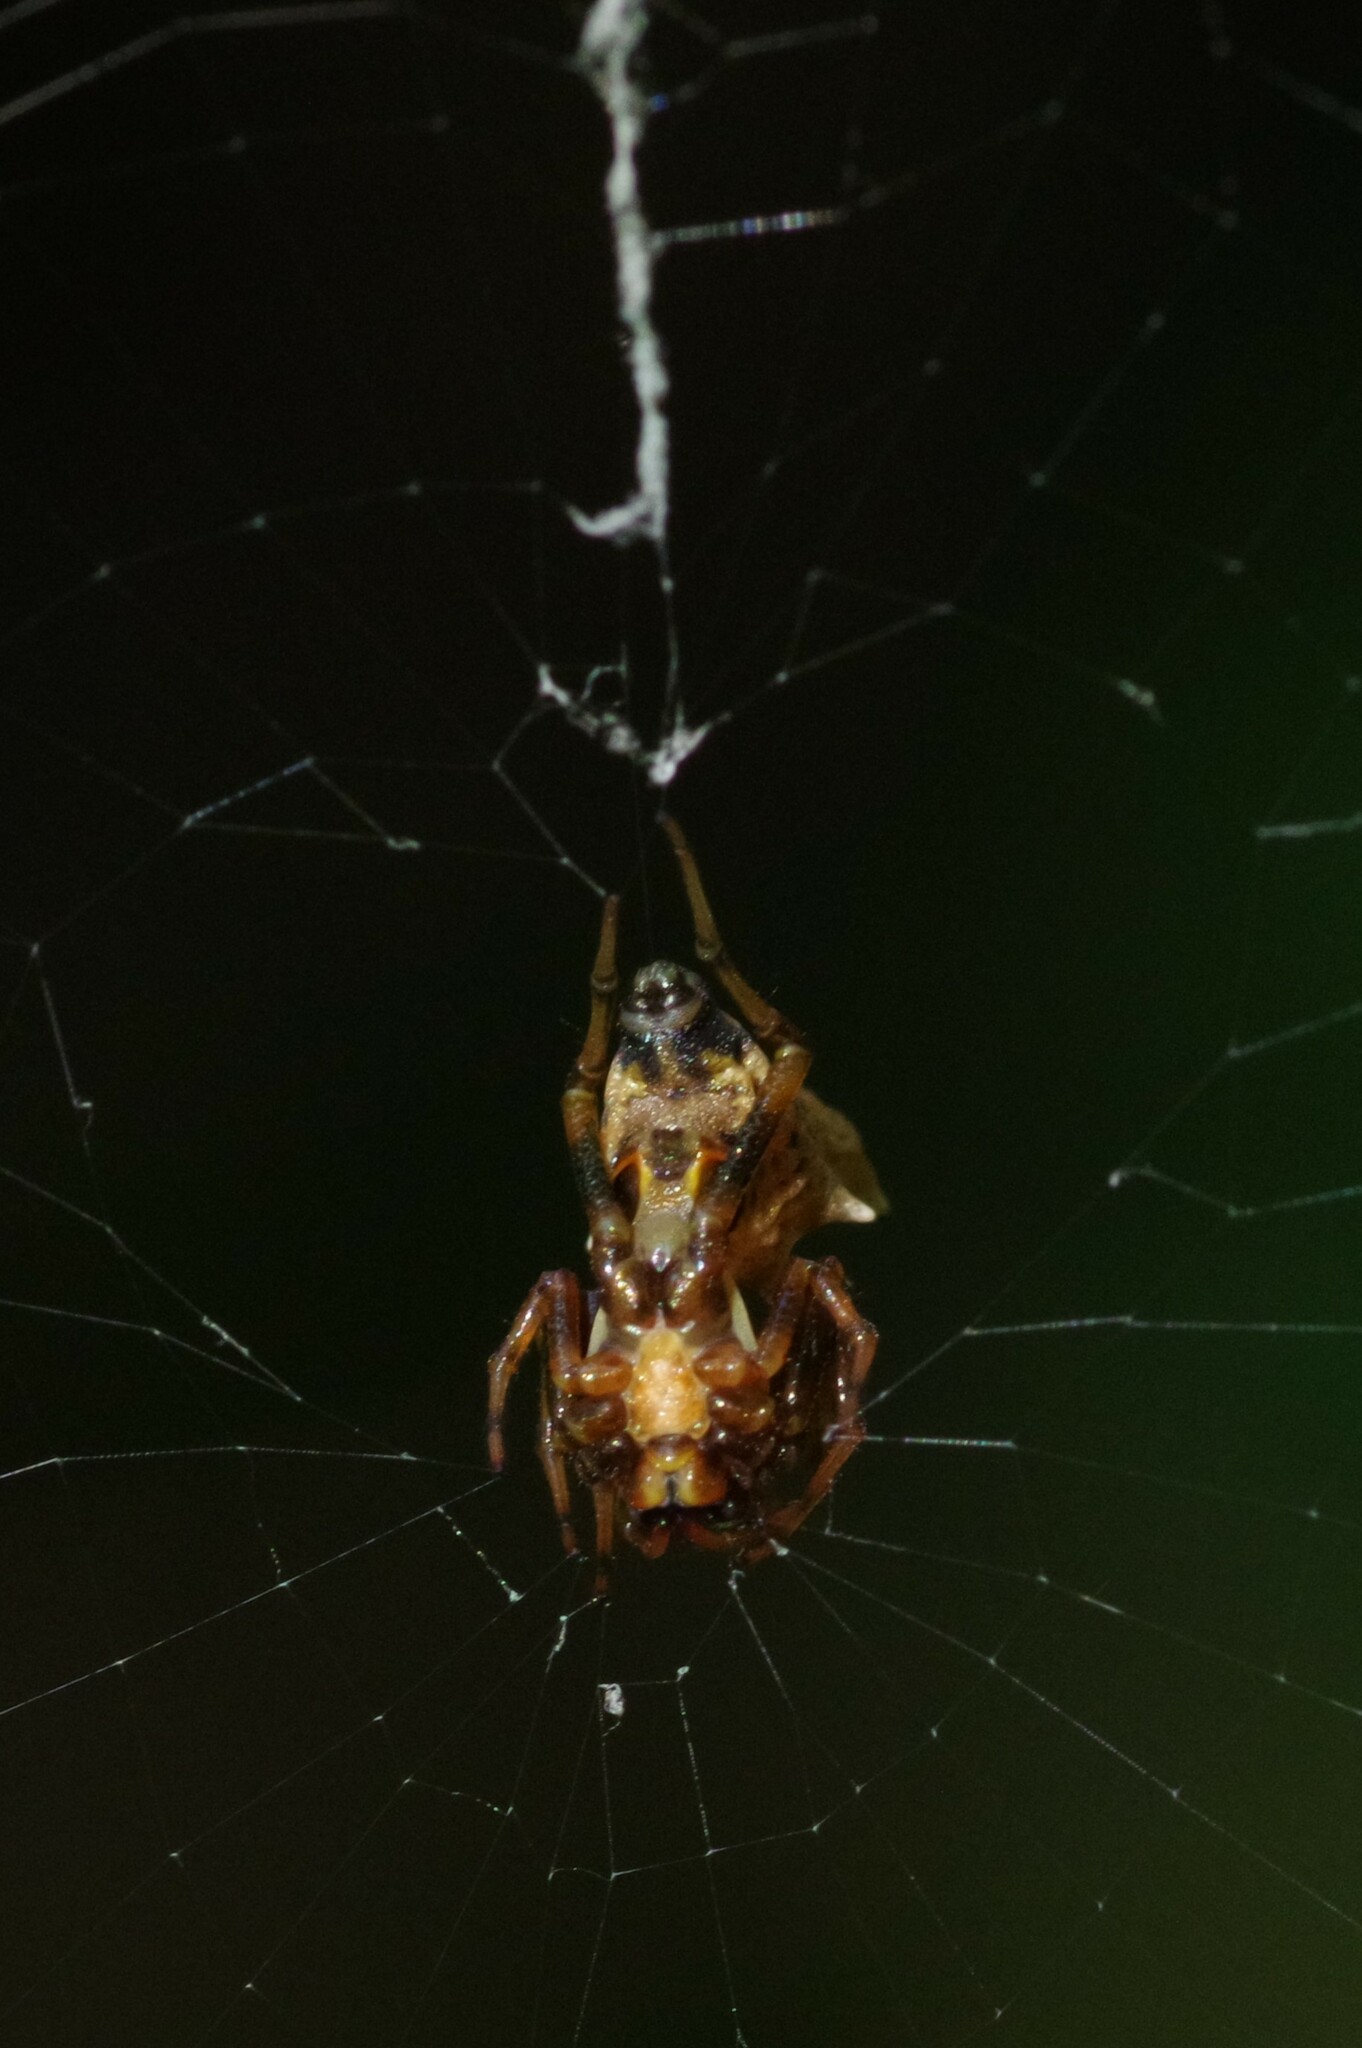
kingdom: Animalia
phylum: Arthropoda
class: Arachnida
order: Araneae
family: Araneidae
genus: Micrathena
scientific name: Micrathena gracilis
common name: Orb weavers
